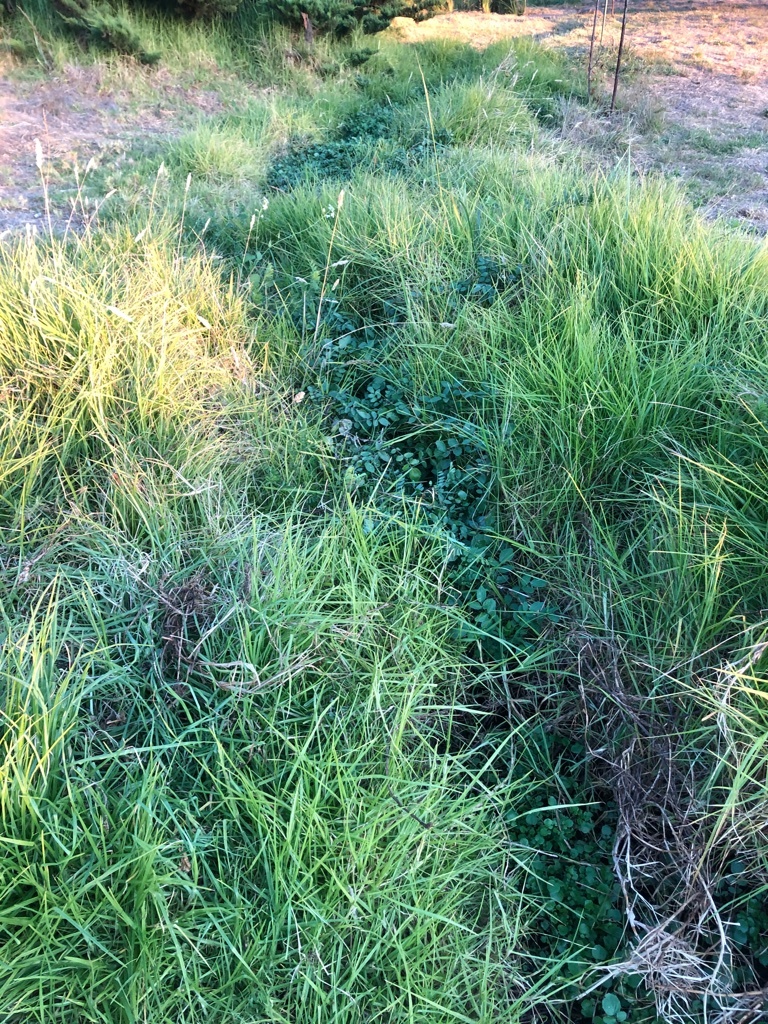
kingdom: Plantae
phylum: Tracheophyta
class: Magnoliopsida
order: Brassicales
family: Brassicaceae
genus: Nasturtium
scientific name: Nasturtium officinale
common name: Watercress
